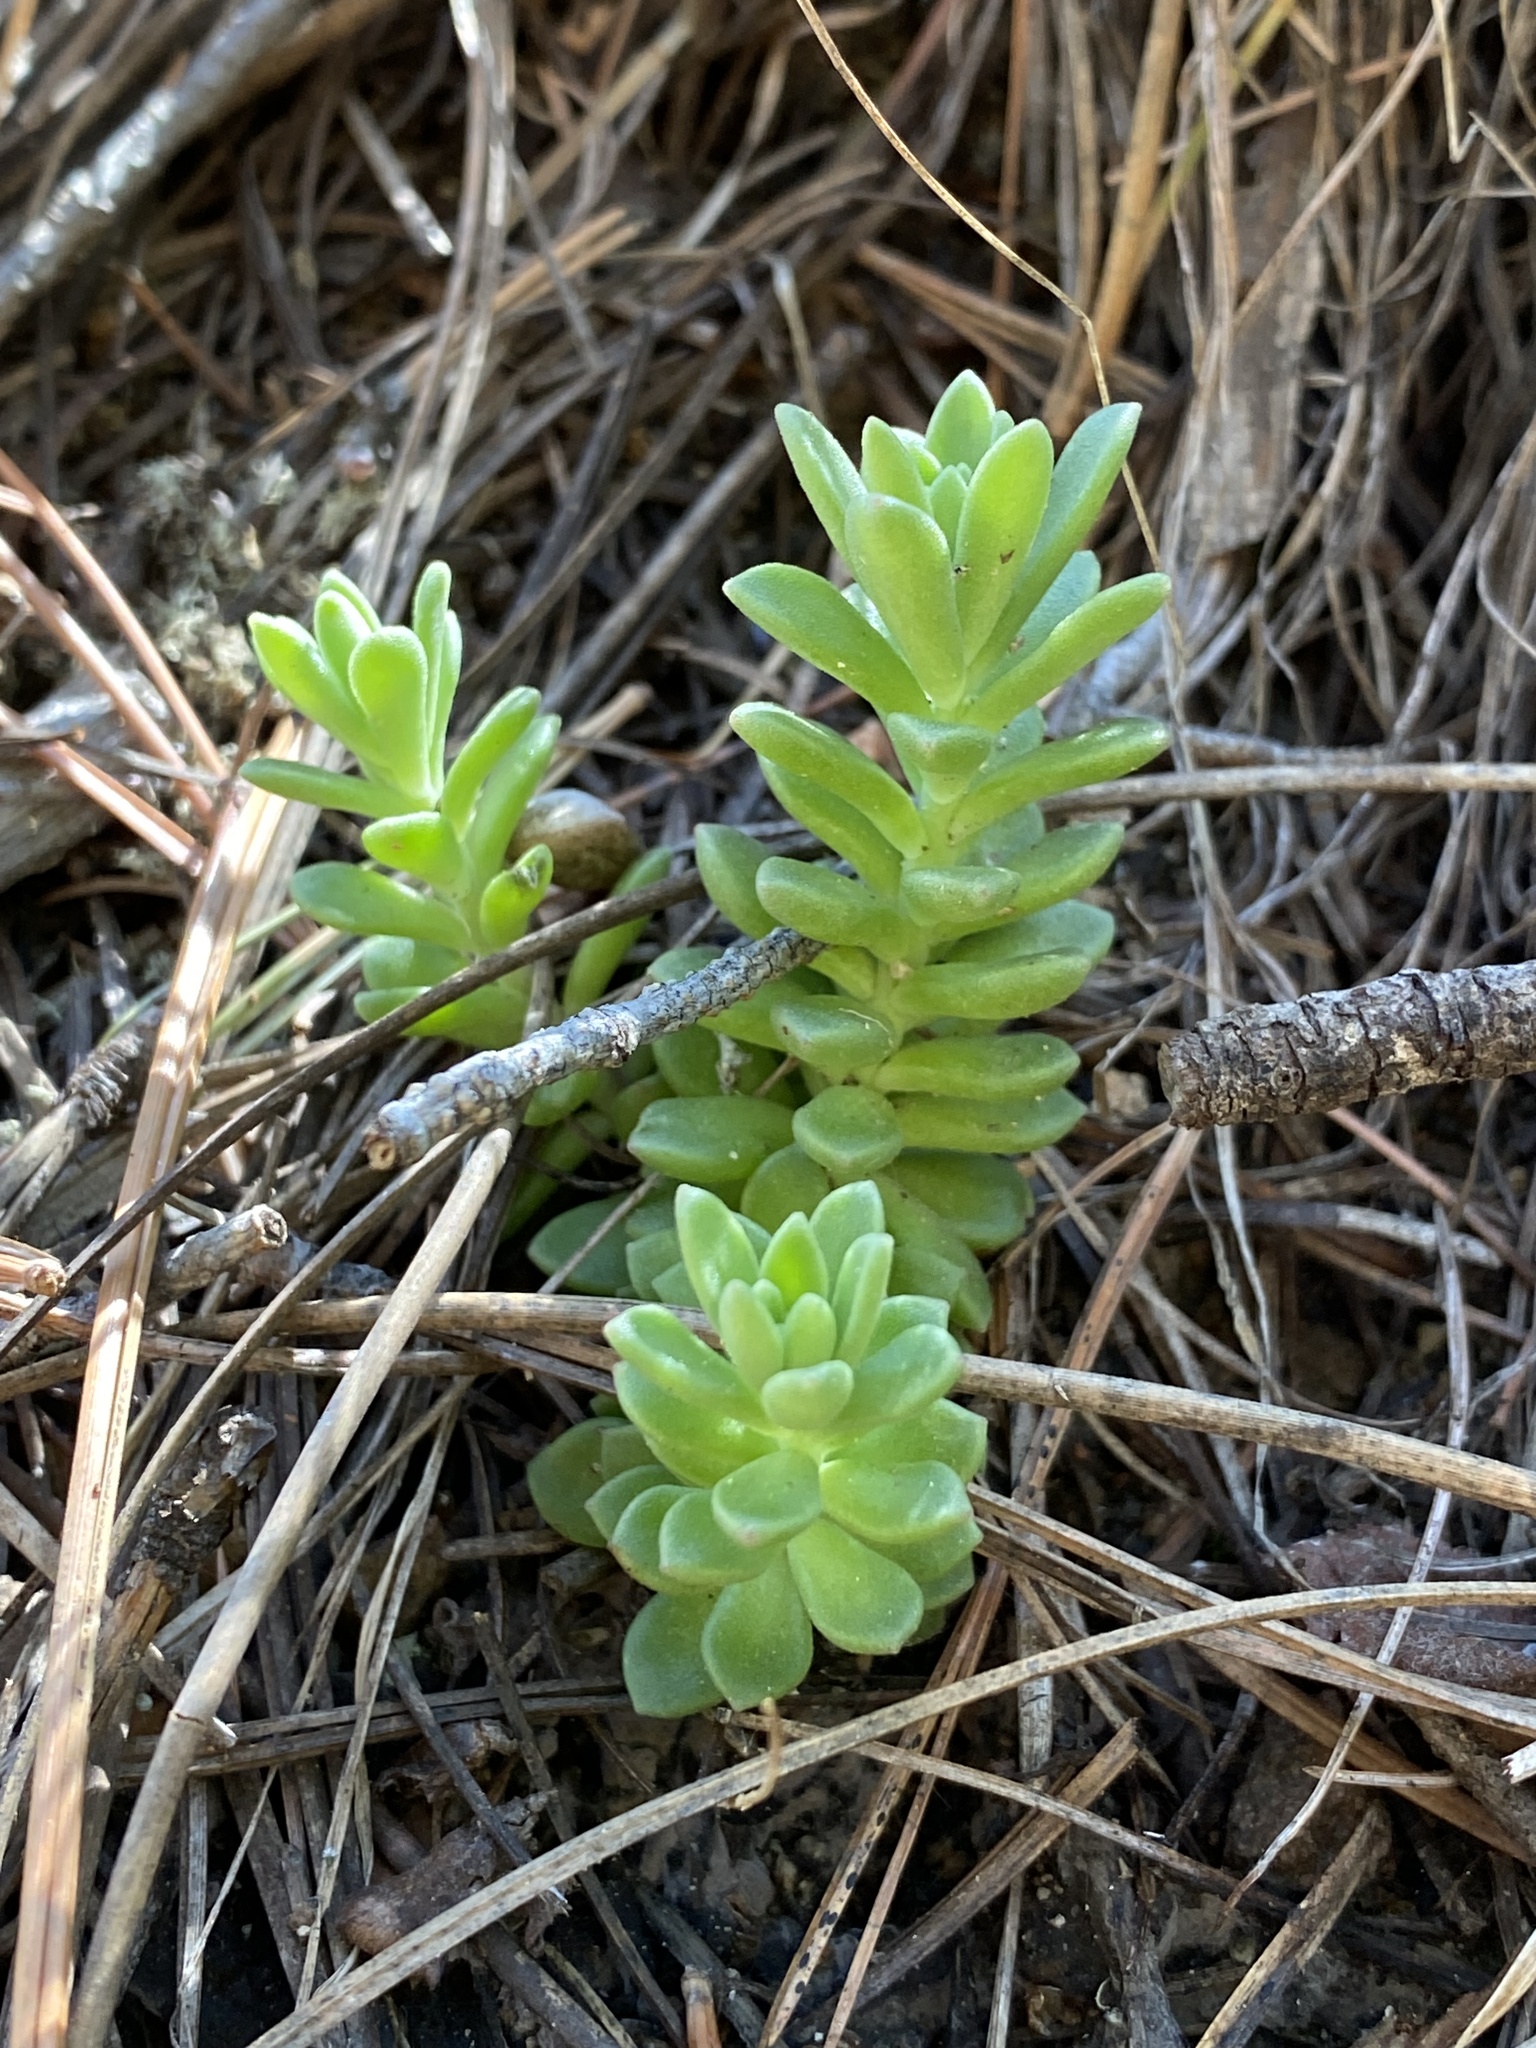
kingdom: Plantae
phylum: Tracheophyta
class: Magnoliopsida
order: Saxifragales
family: Crassulaceae
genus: Sedum
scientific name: Sedum cockerellii
